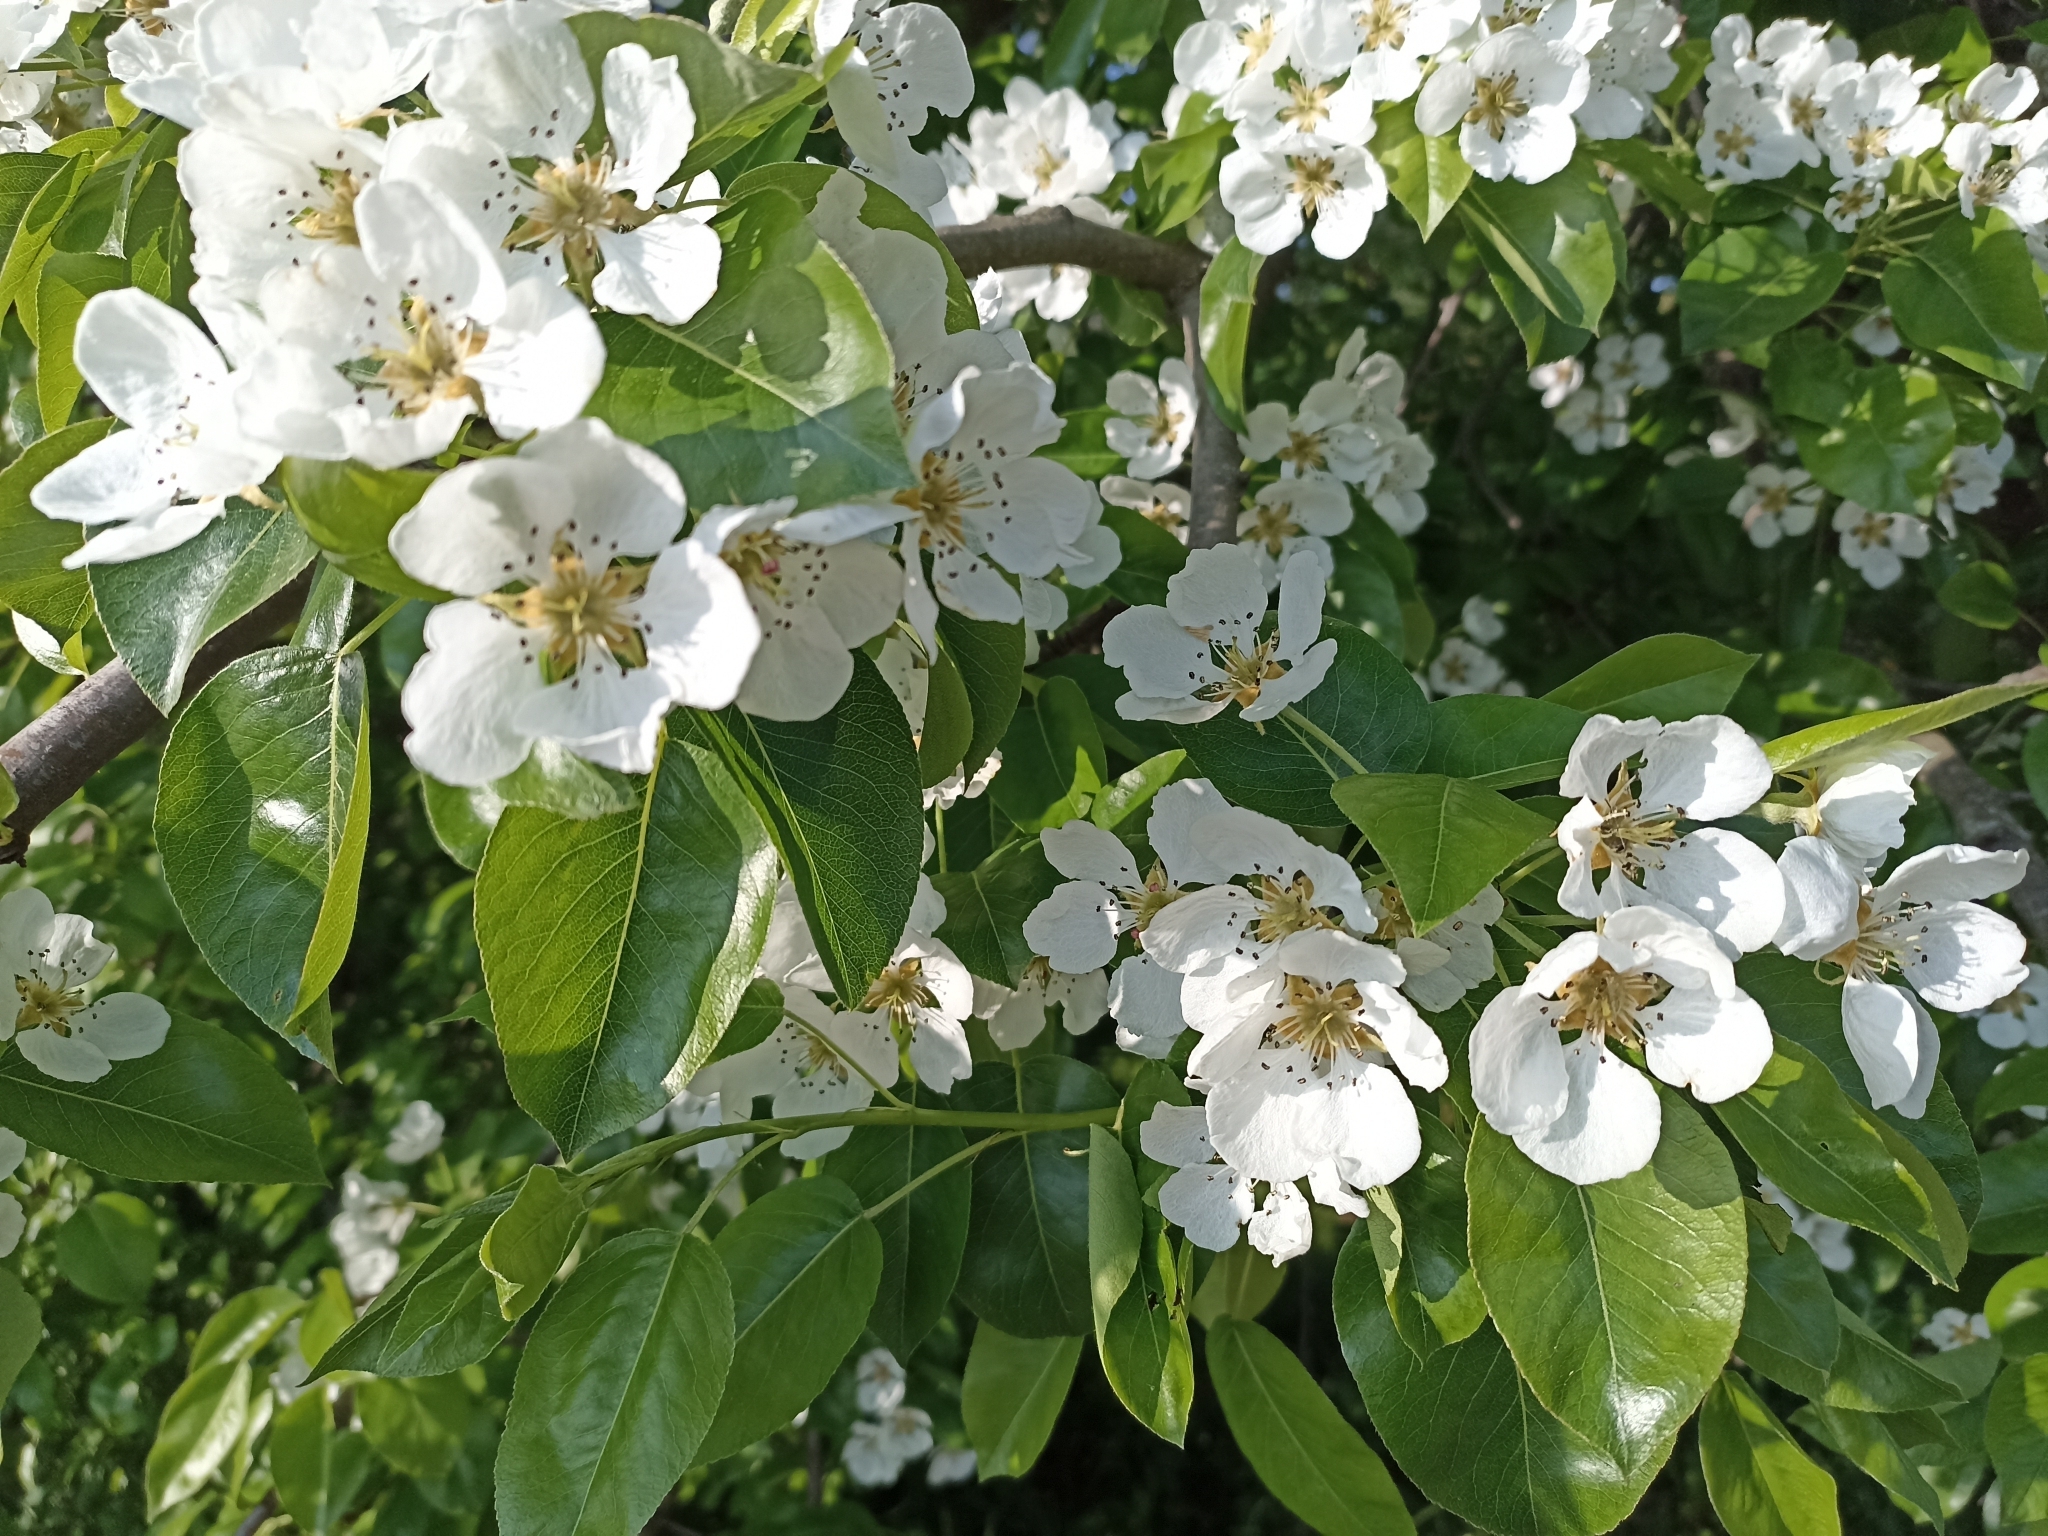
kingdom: Plantae
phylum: Tracheophyta
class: Magnoliopsida
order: Rosales
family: Rosaceae
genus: Pyrus
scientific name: Pyrus communis
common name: Pear
